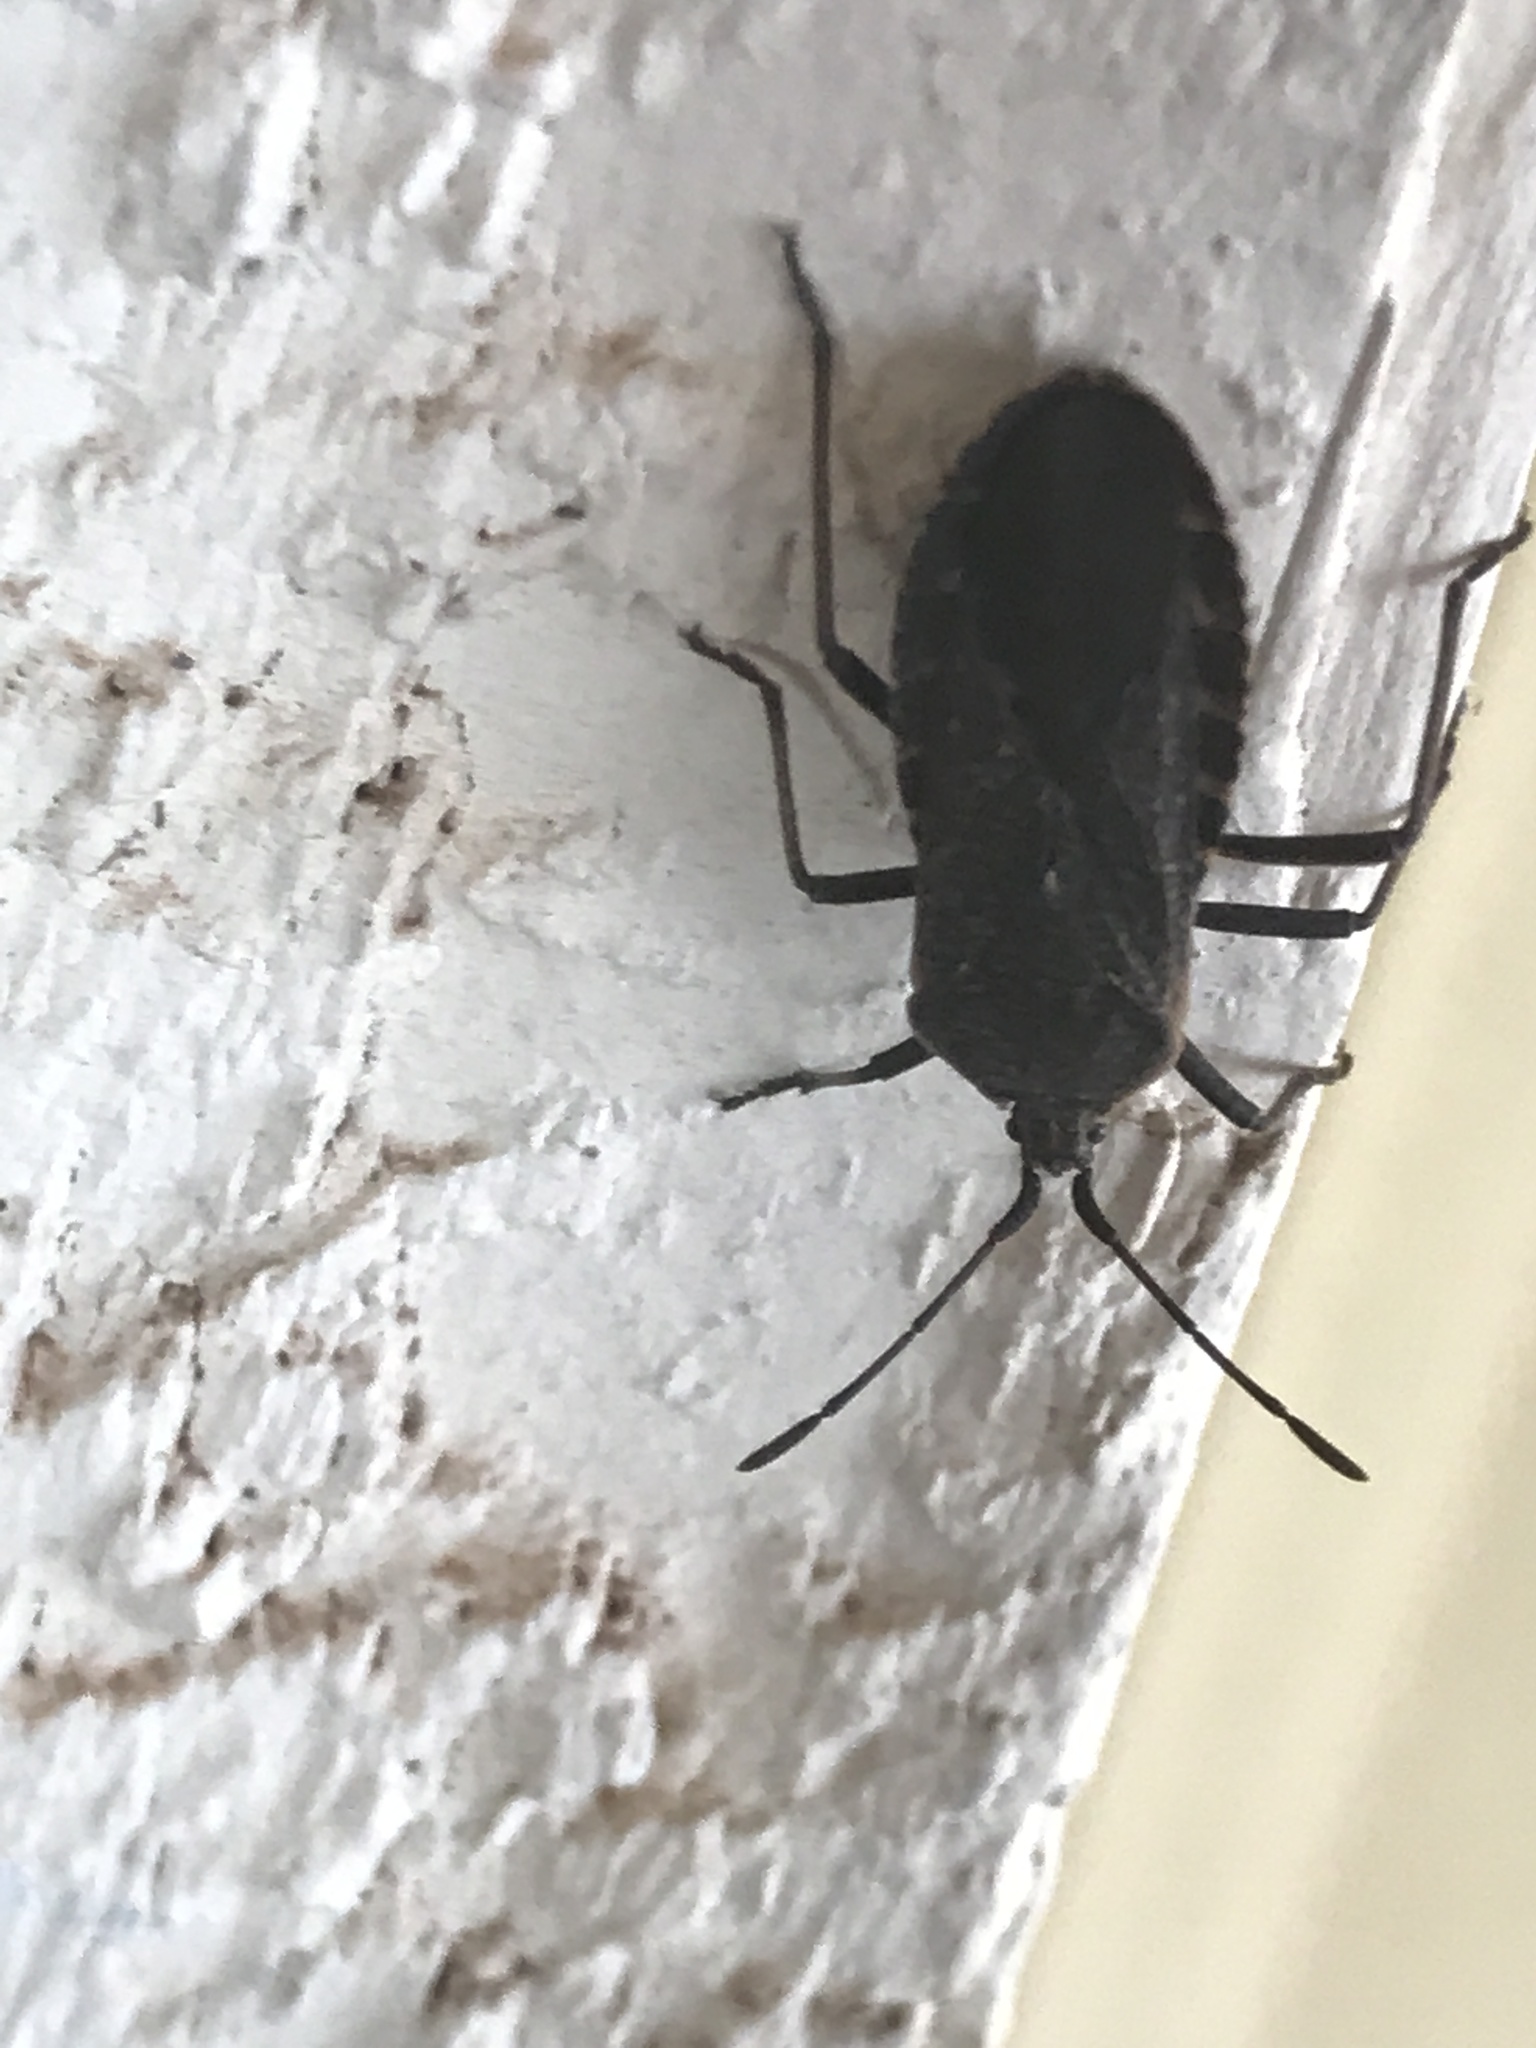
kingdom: Animalia
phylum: Arthropoda
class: Insecta
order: Hemiptera
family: Coreidae
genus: Anasa
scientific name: Anasa tristis
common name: Squash bug
